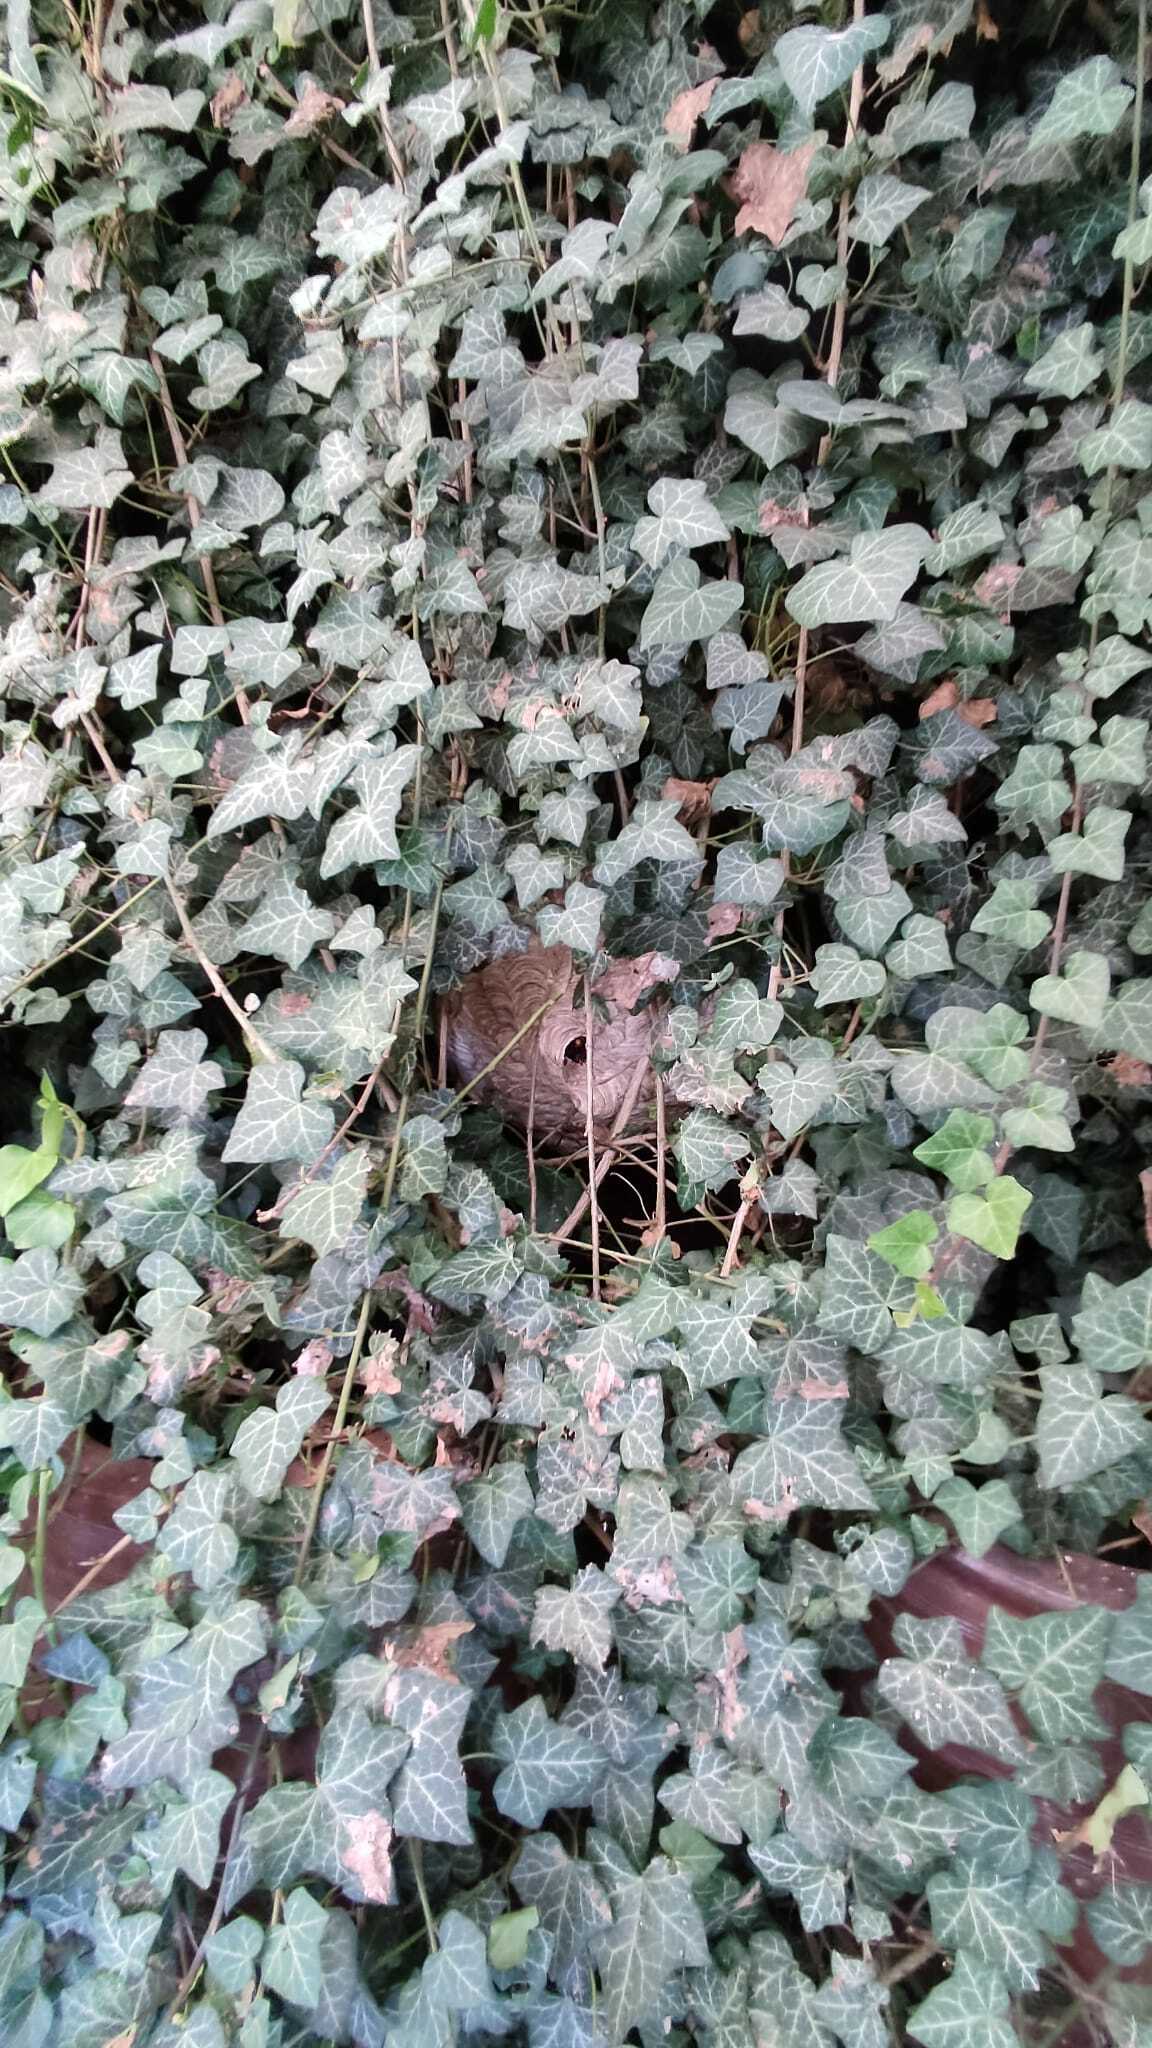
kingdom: Animalia
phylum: Arthropoda
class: Insecta
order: Hymenoptera
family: Vespidae
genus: Vespa
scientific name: Vespa velutina
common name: Asian hornet
